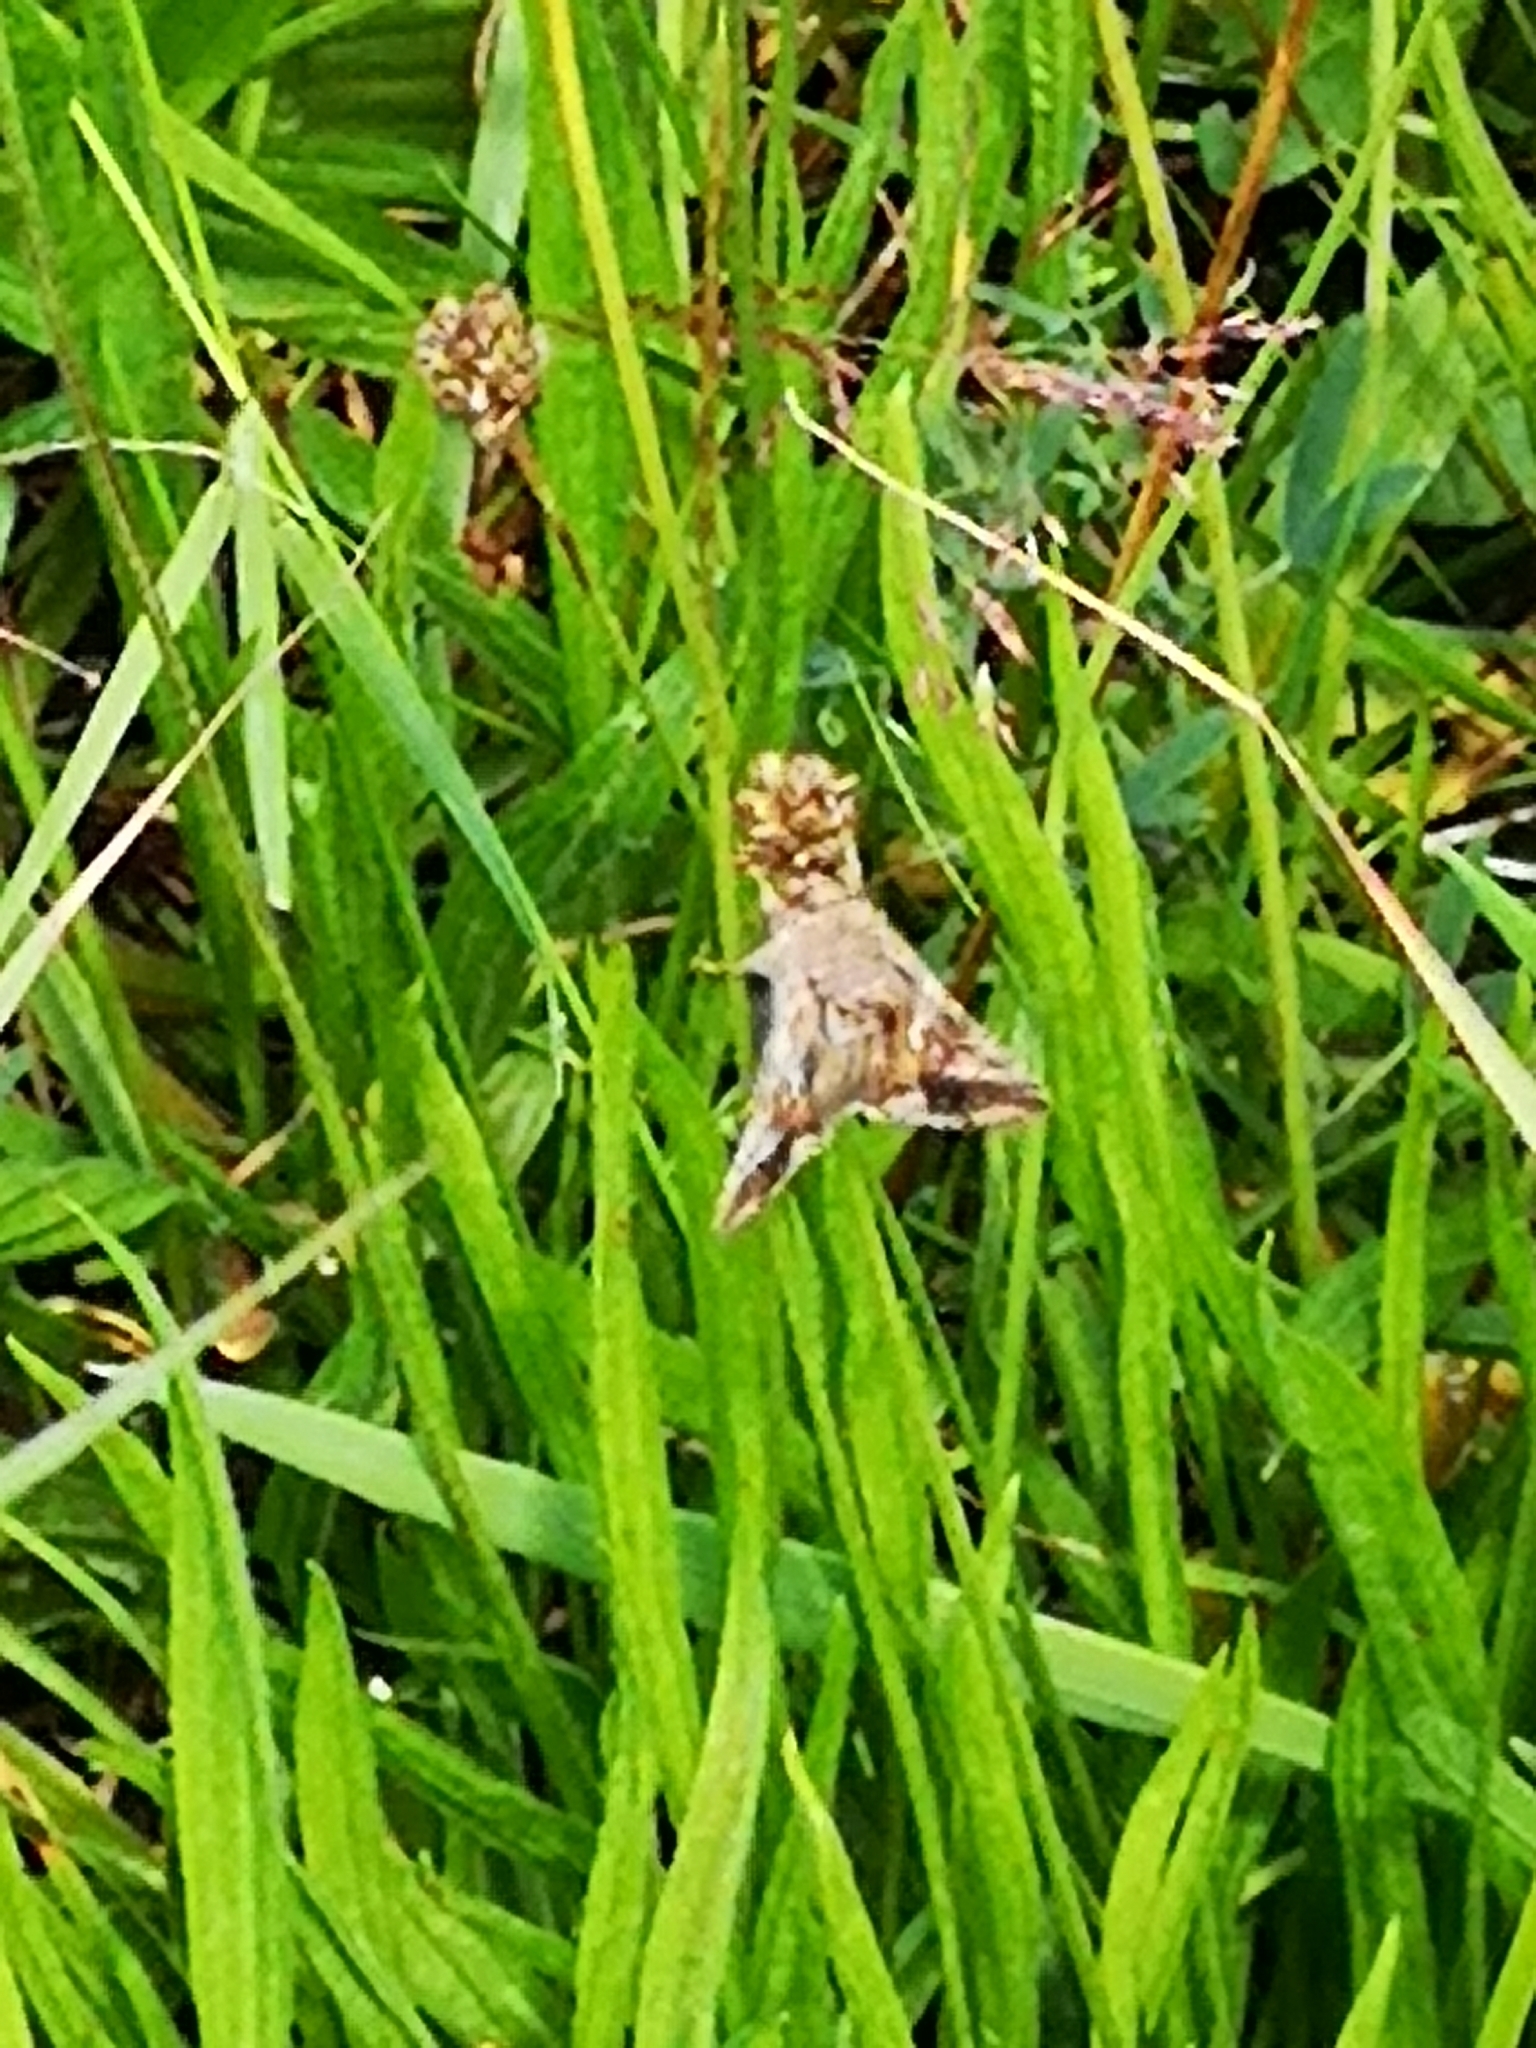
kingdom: Animalia
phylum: Arthropoda
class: Insecta
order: Lepidoptera
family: Noctuidae
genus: Autographa
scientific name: Autographa gamma
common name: Silver y
